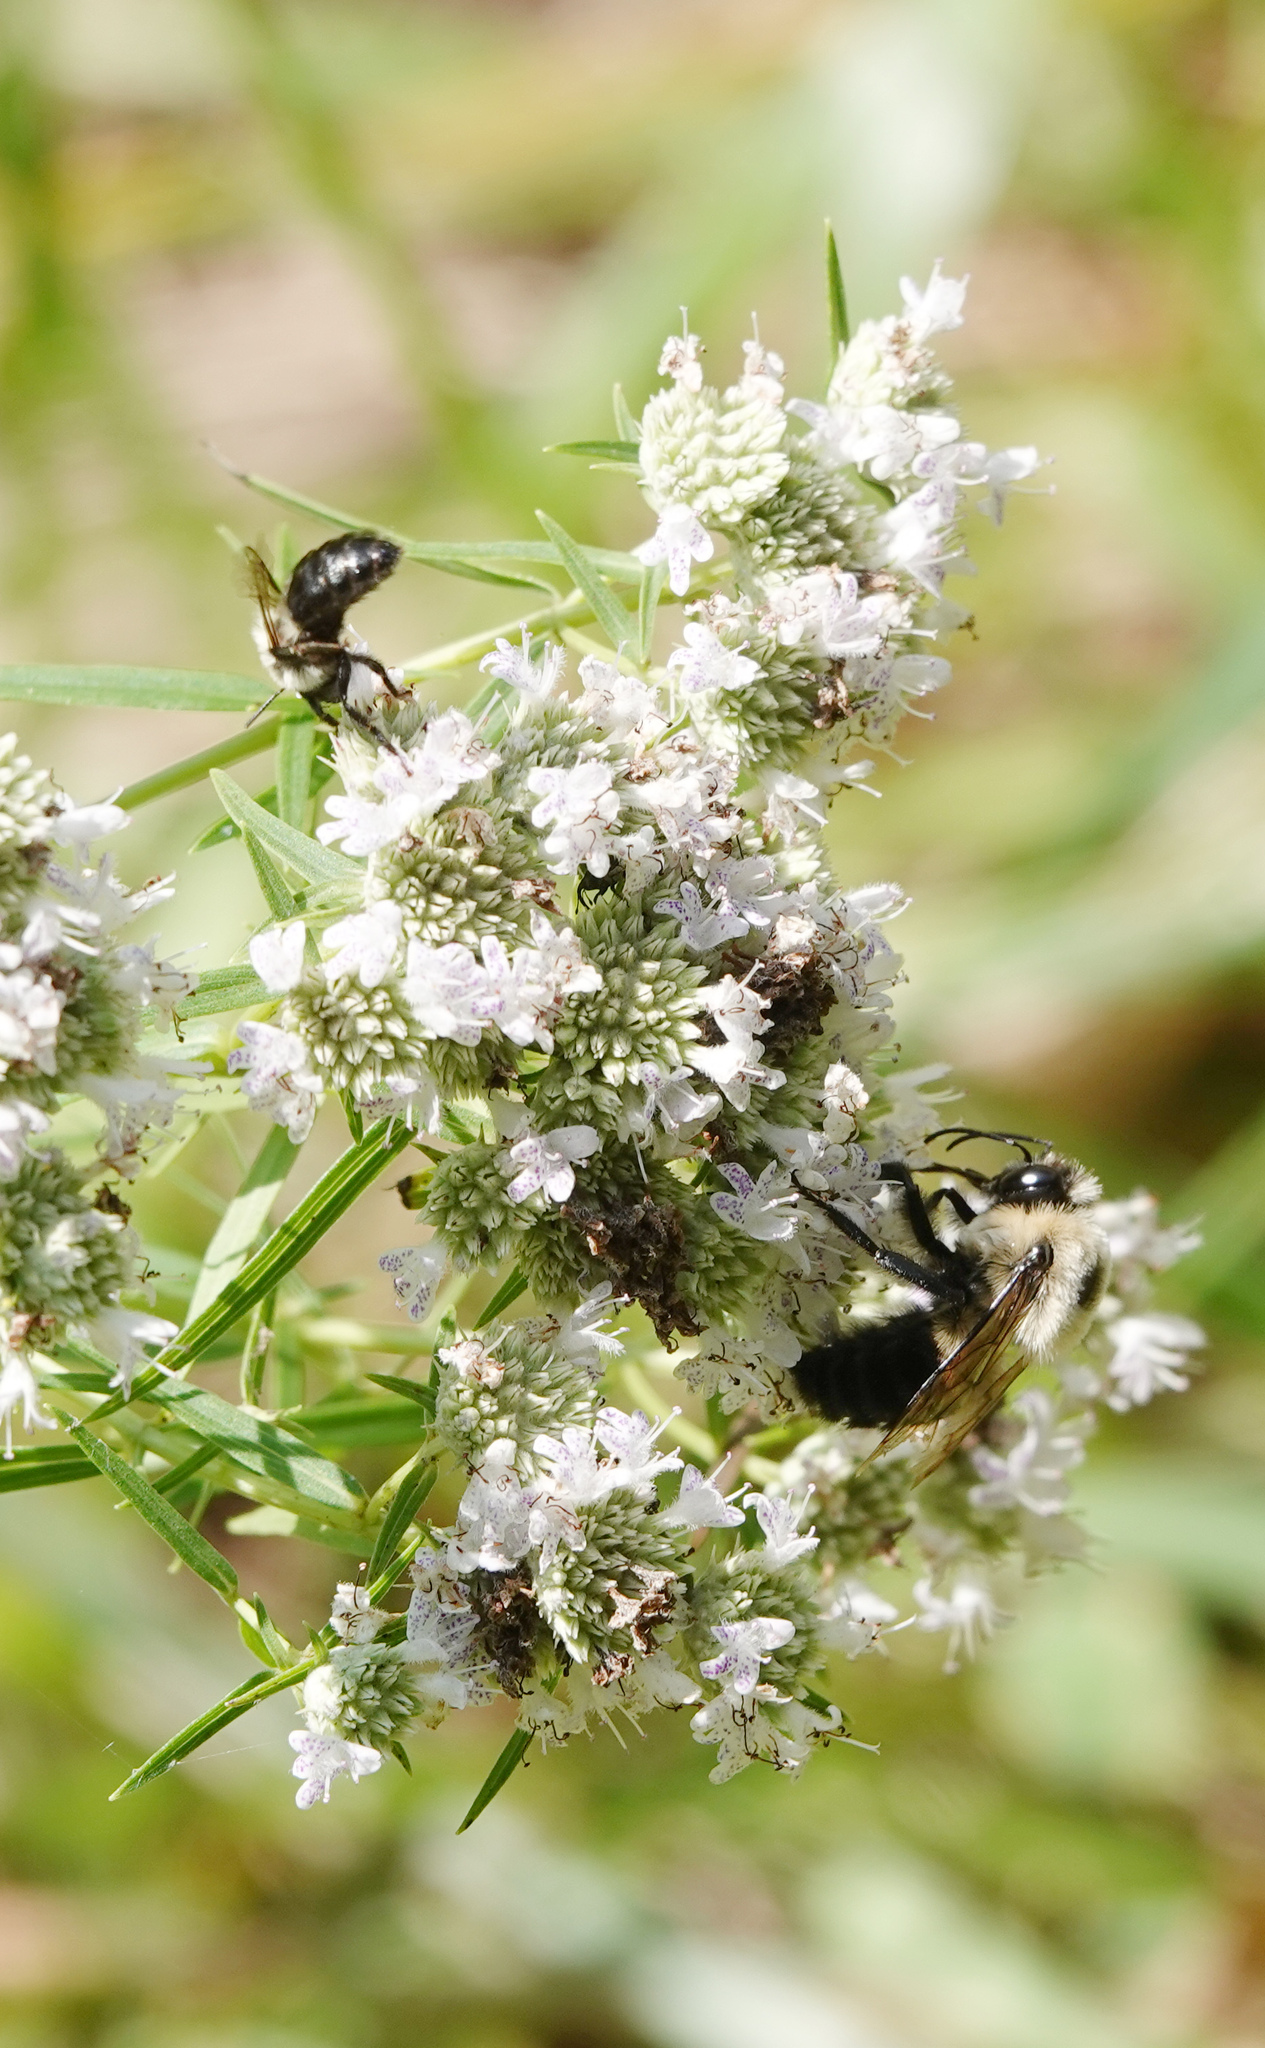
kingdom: Animalia
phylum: Arthropoda
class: Insecta
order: Hymenoptera
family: Apidae
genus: Bombus
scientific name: Bombus impatiens
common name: Common eastern bumble bee
